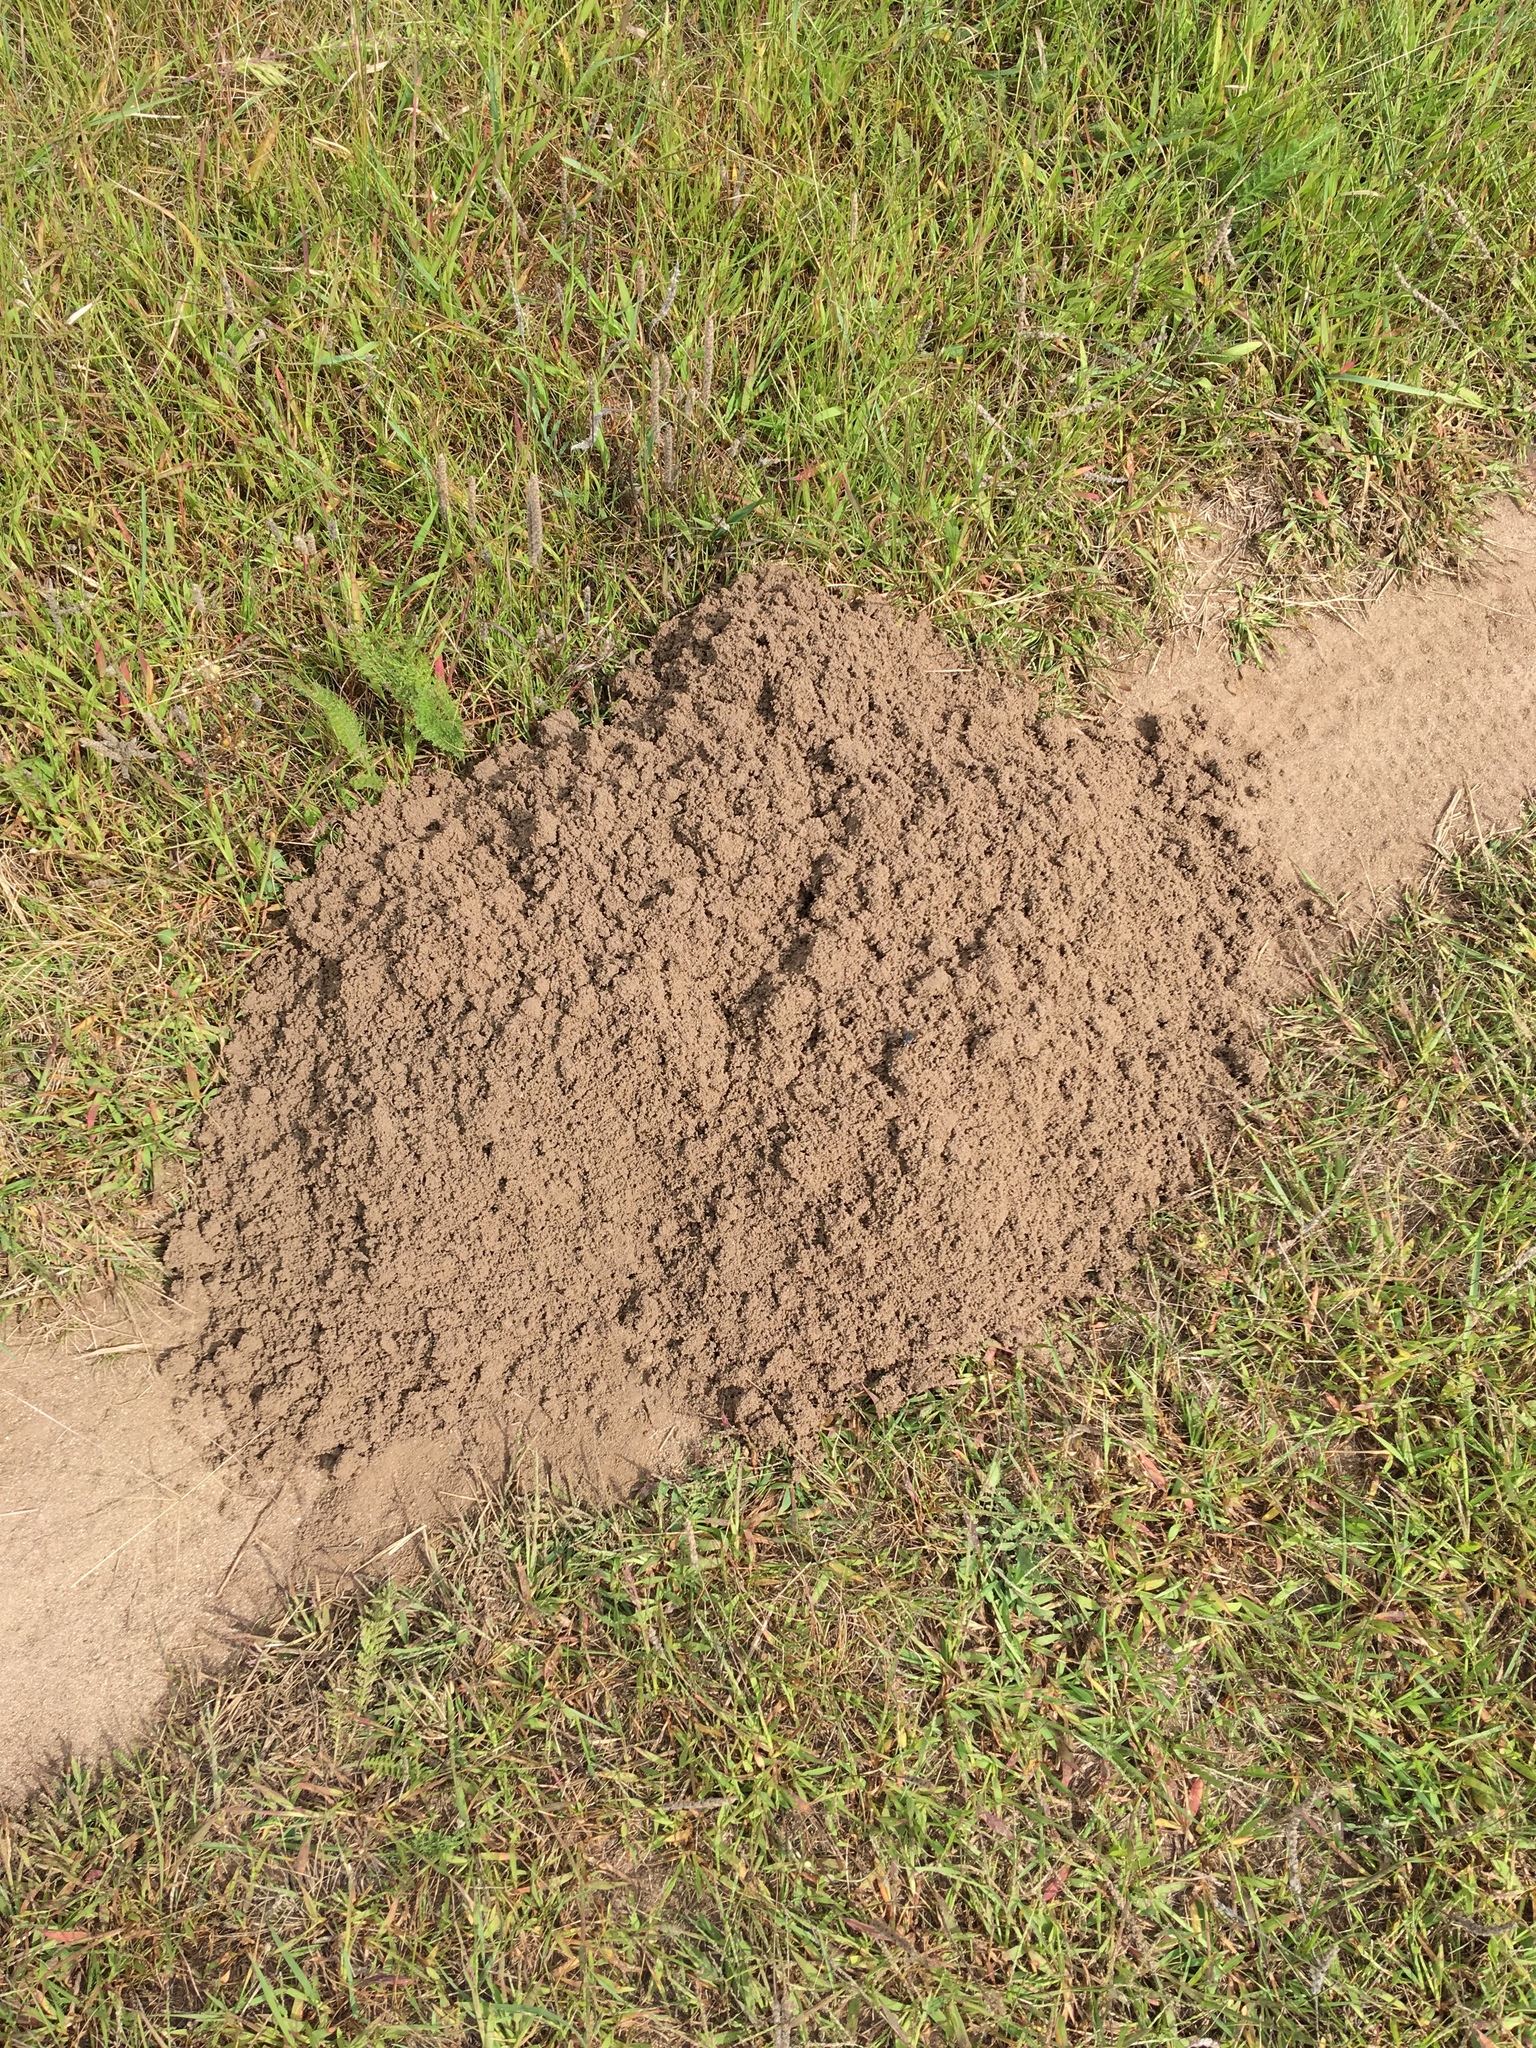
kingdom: Animalia
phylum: Chordata
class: Mammalia
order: Rodentia
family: Geomyidae
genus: Geomys
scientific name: Geomys bursarius
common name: Plains pocket gopher
